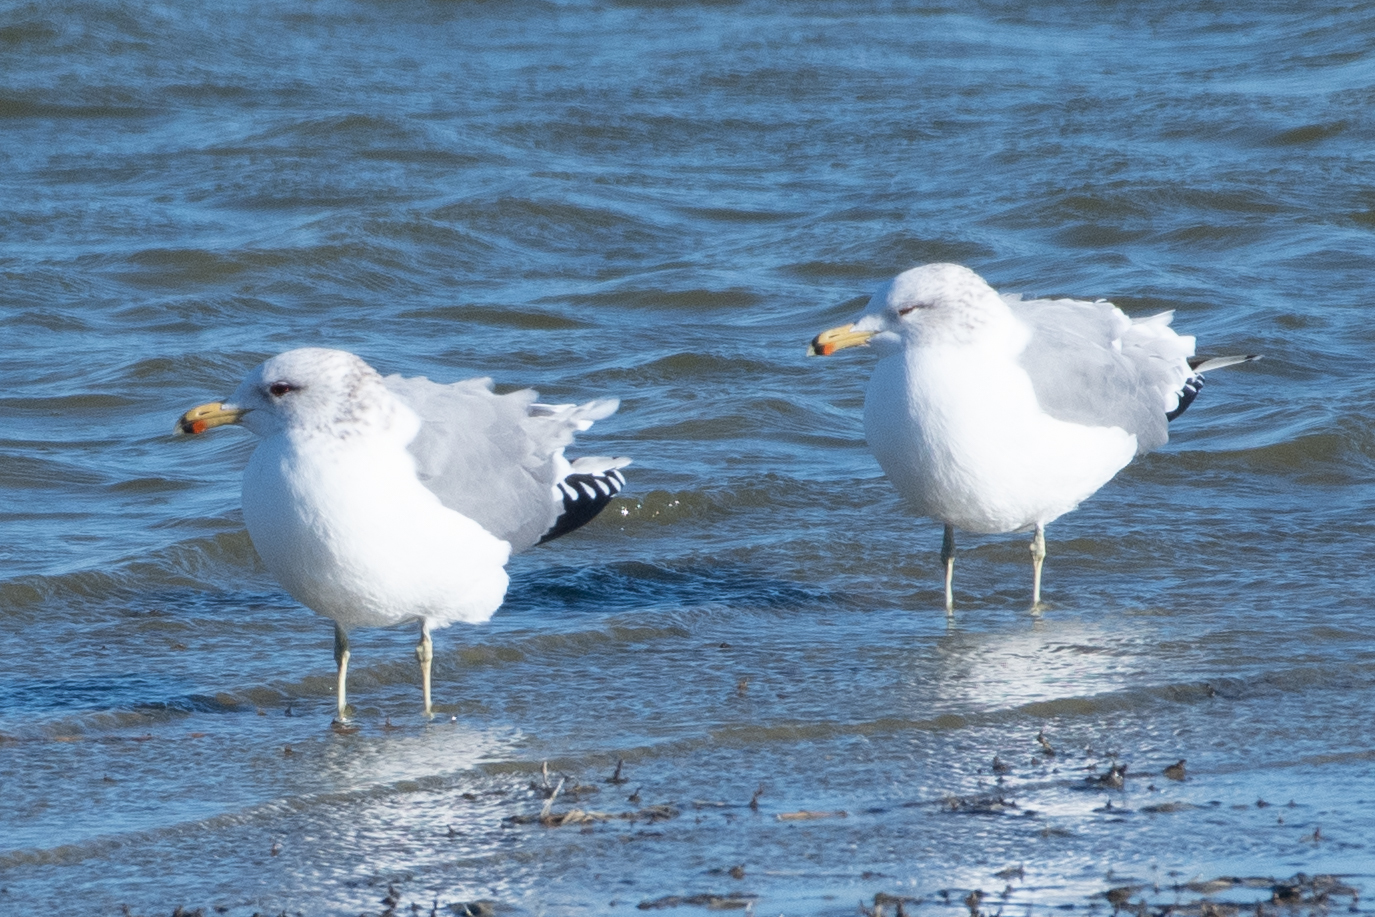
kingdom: Animalia
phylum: Chordata
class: Aves
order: Charadriiformes
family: Laridae
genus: Larus
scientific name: Larus californicus
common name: California gull
